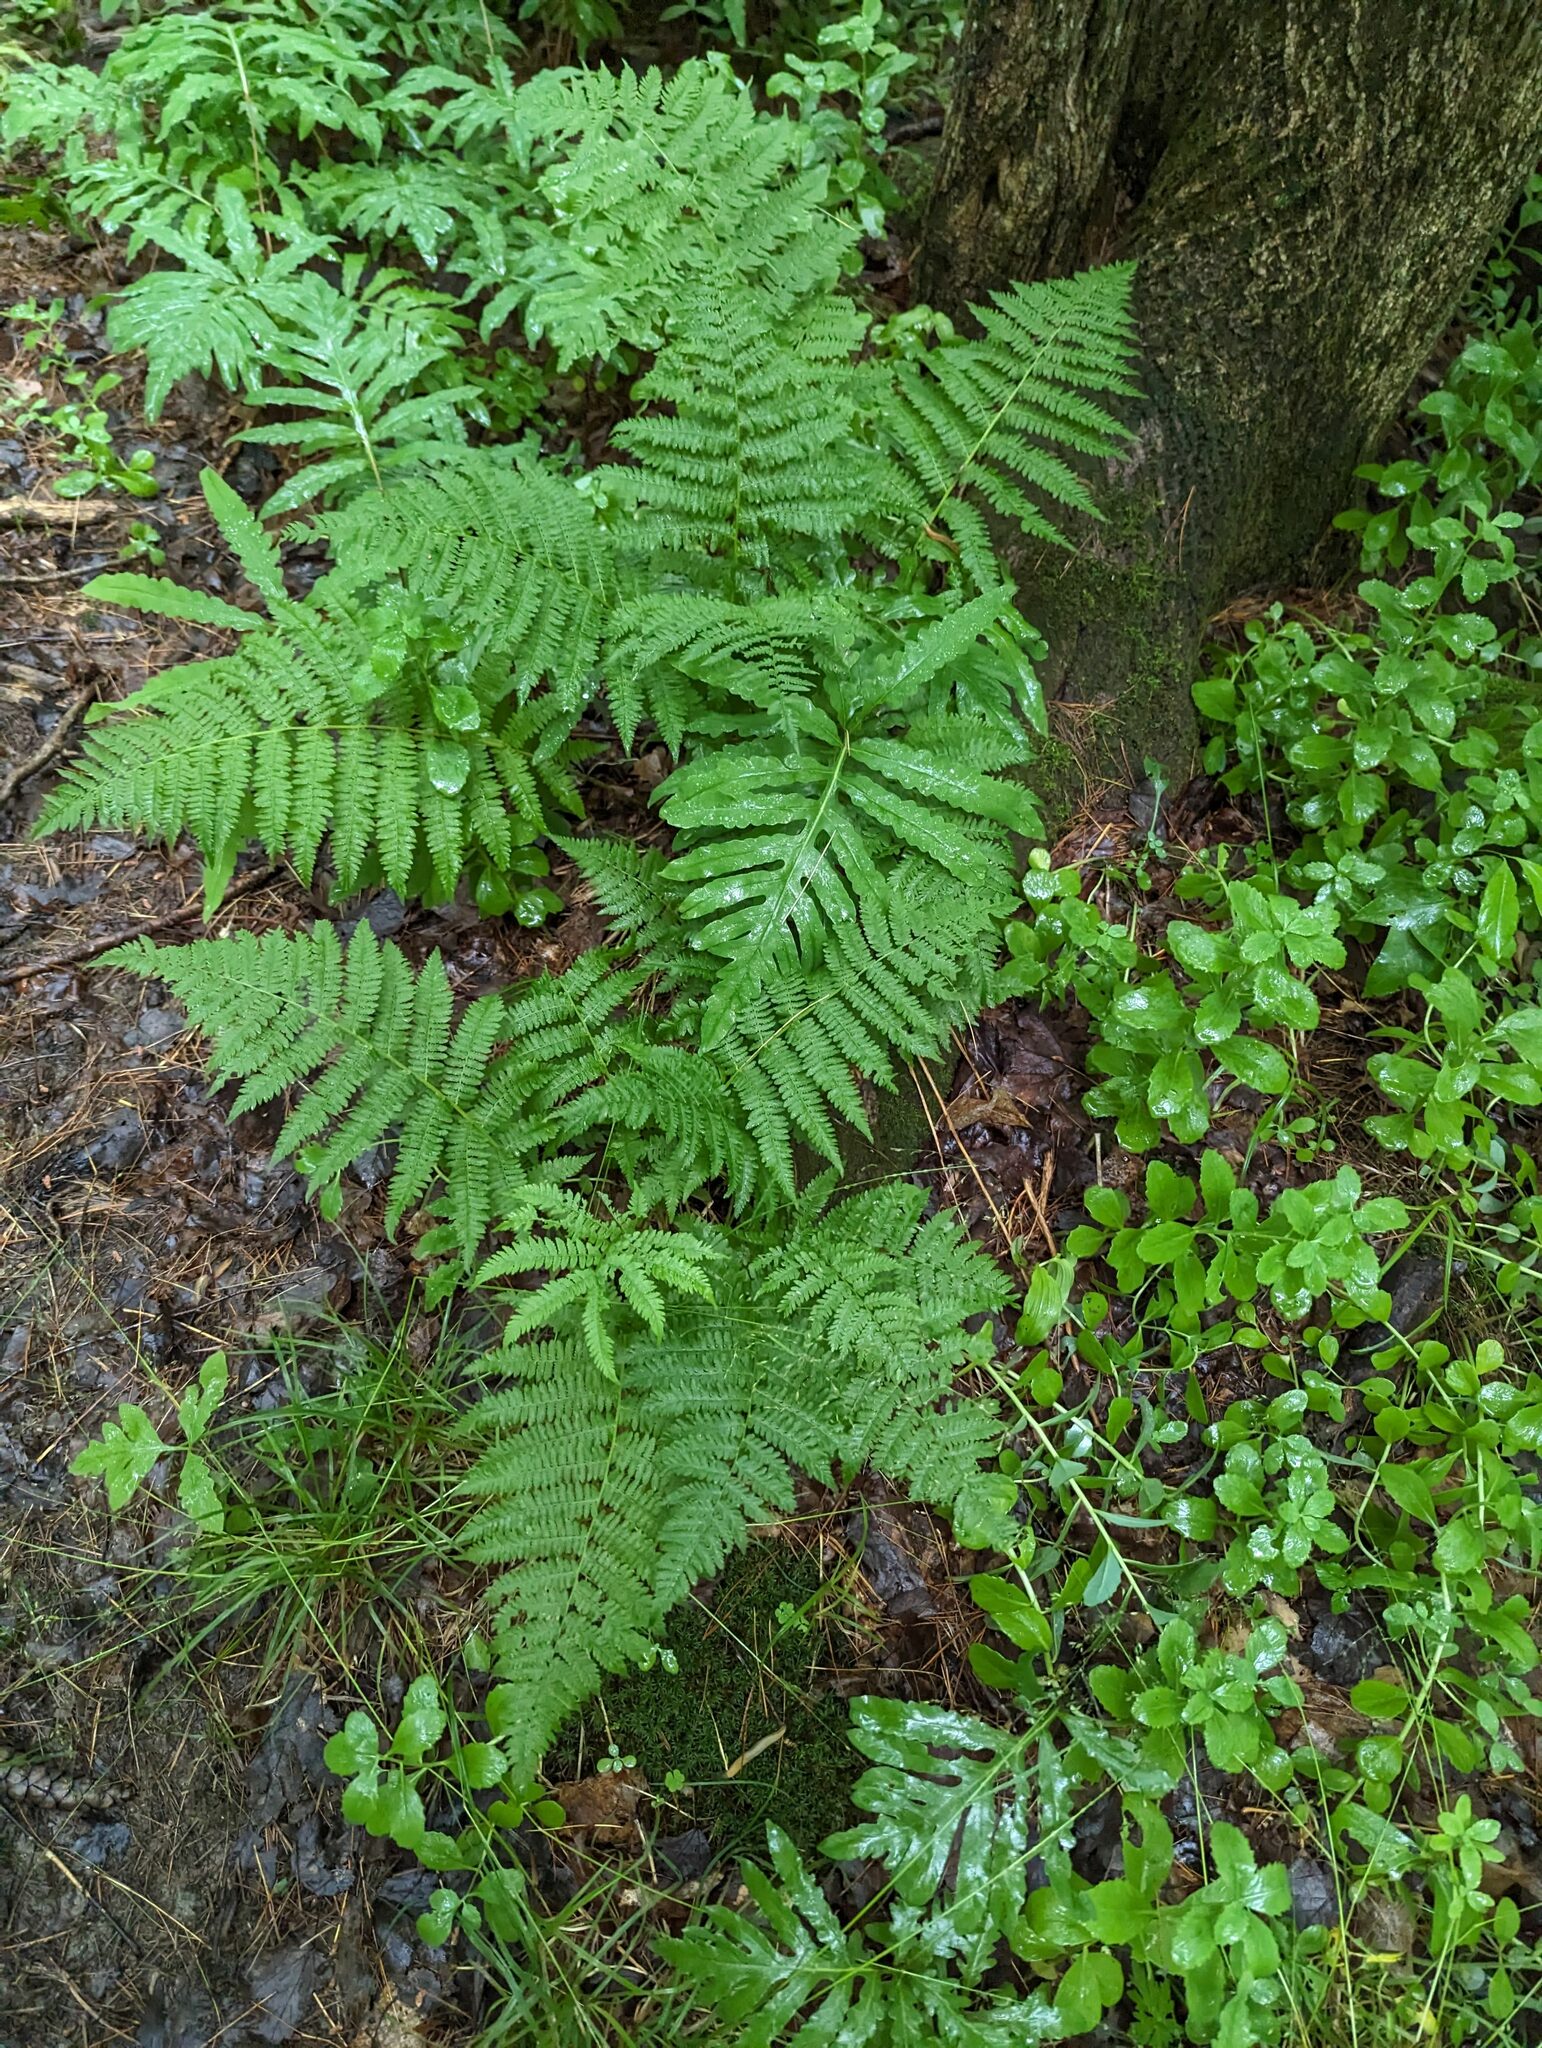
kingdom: Plantae
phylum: Tracheophyta
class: Polypodiopsida
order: Polypodiales
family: Athyriaceae
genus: Athyrium
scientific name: Athyrium angustum
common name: Northern lady fern
